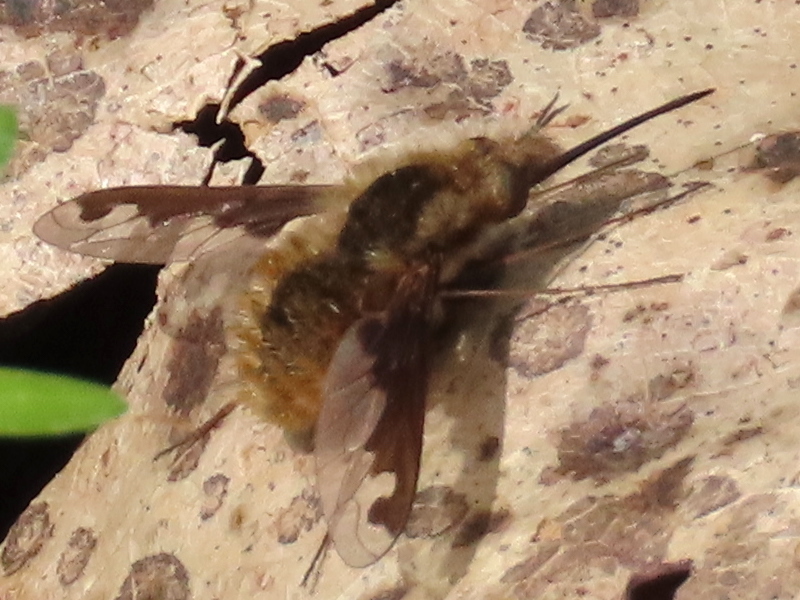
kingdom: Animalia
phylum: Arthropoda
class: Insecta
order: Diptera
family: Bombyliidae
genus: Bombylius
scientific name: Bombylius major
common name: Bee fly
